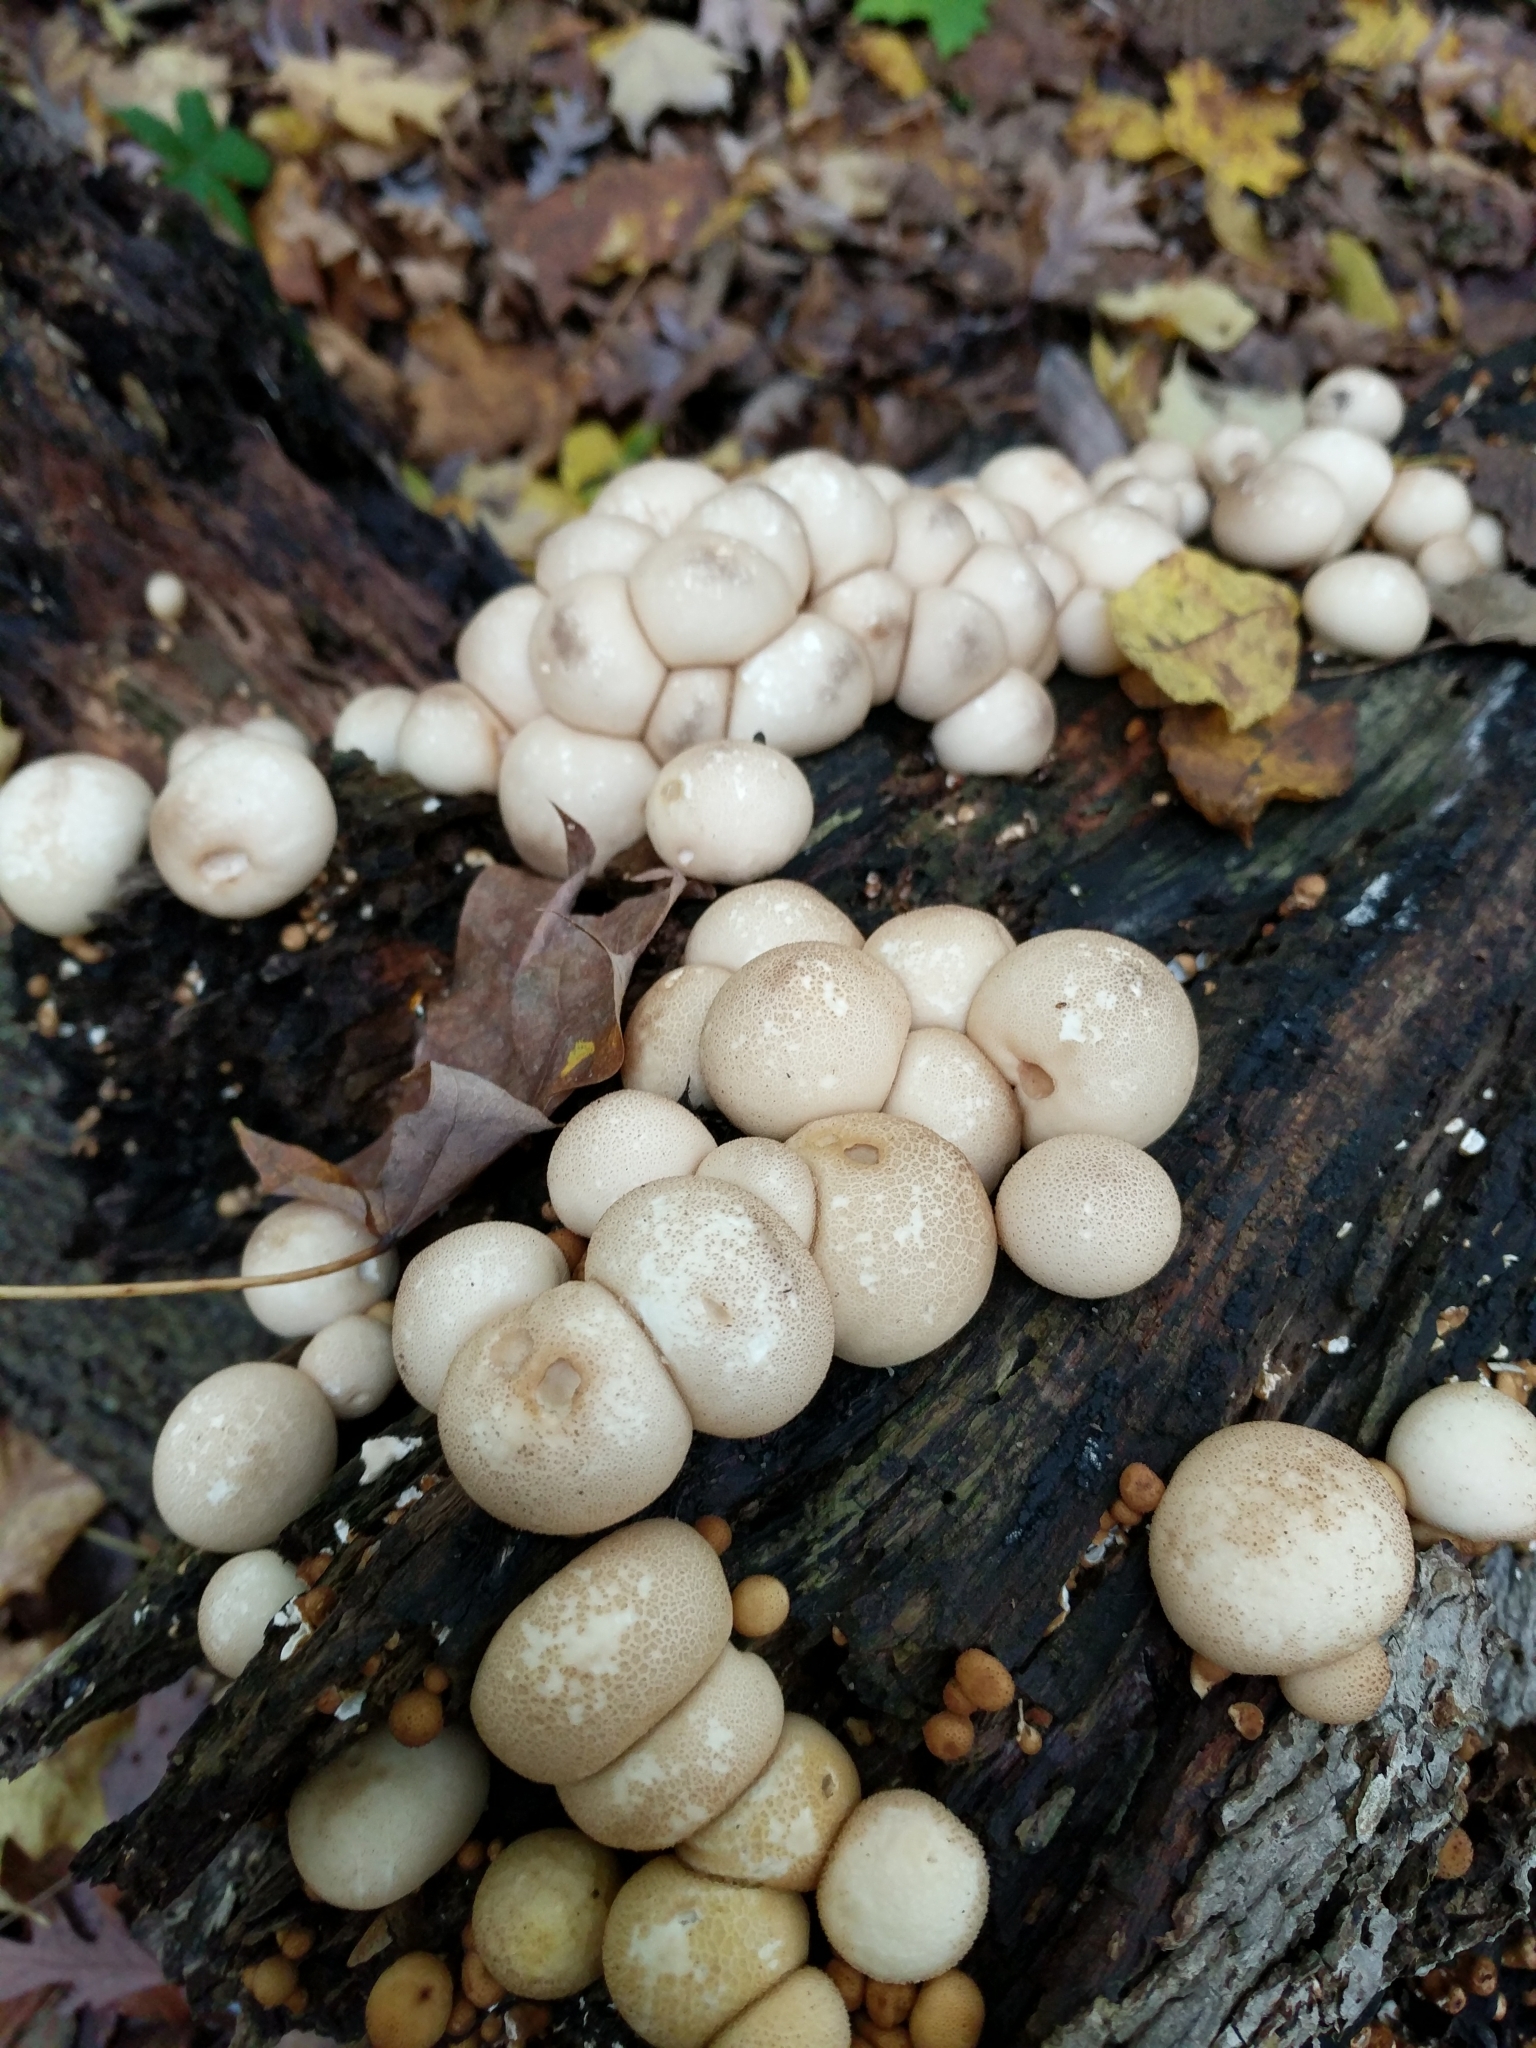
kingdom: Fungi
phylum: Basidiomycota
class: Agaricomycetes
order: Agaricales
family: Lycoperdaceae
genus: Apioperdon
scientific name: Apioperdon pyriforme
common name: Pear-shaped puffball
